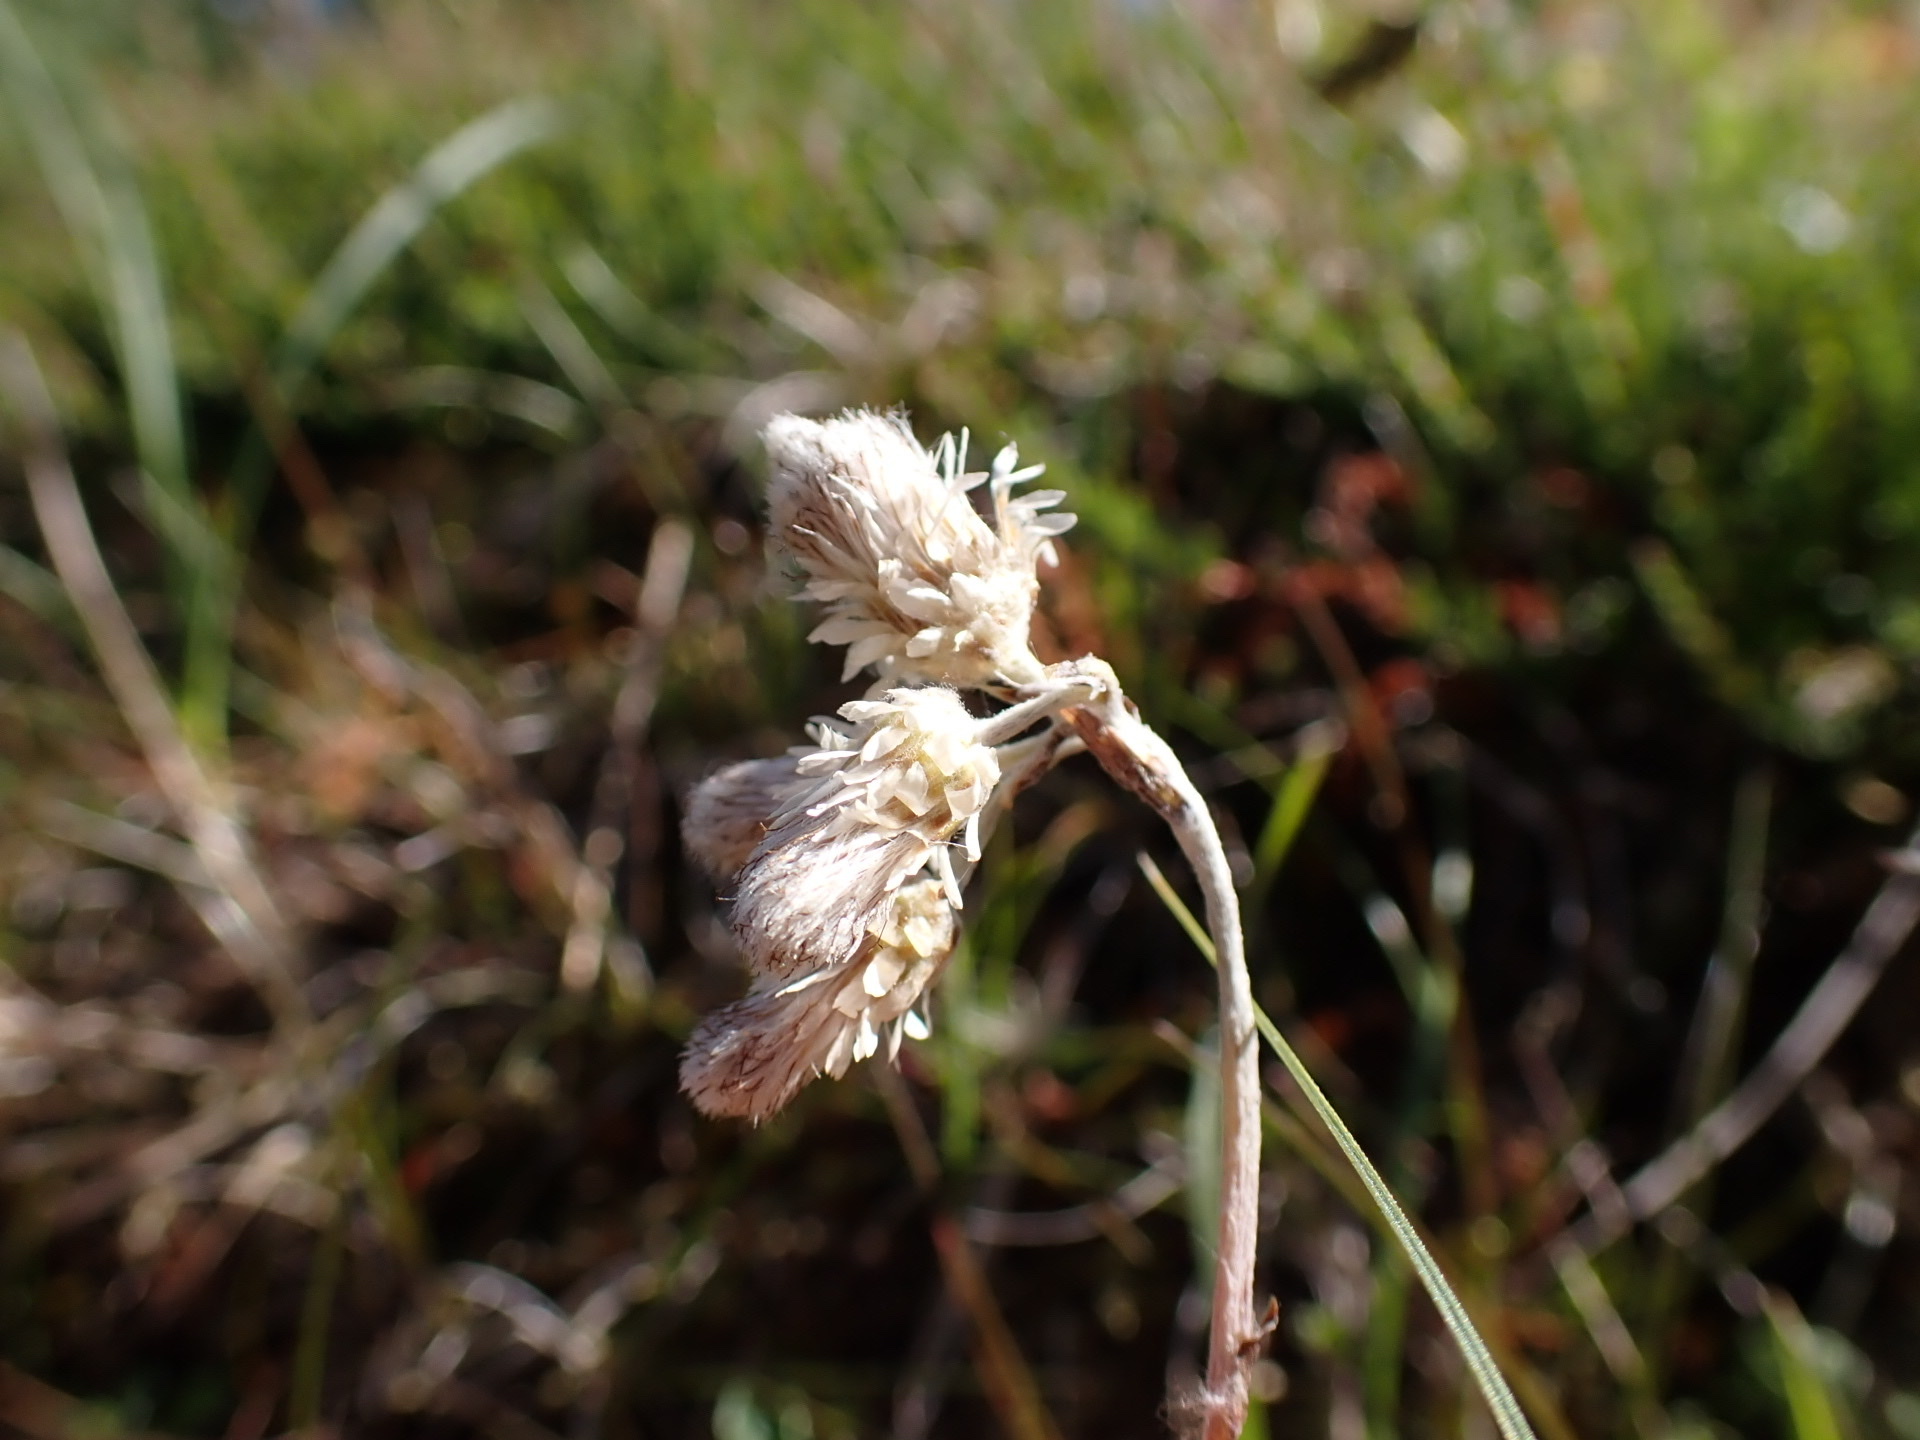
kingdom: Plantae
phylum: Tracheophyta
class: Magnoliopsida
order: Asterales
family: Asteraceae
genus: Antennaria
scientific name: Antennaria dioica
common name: Mountain everlasting
